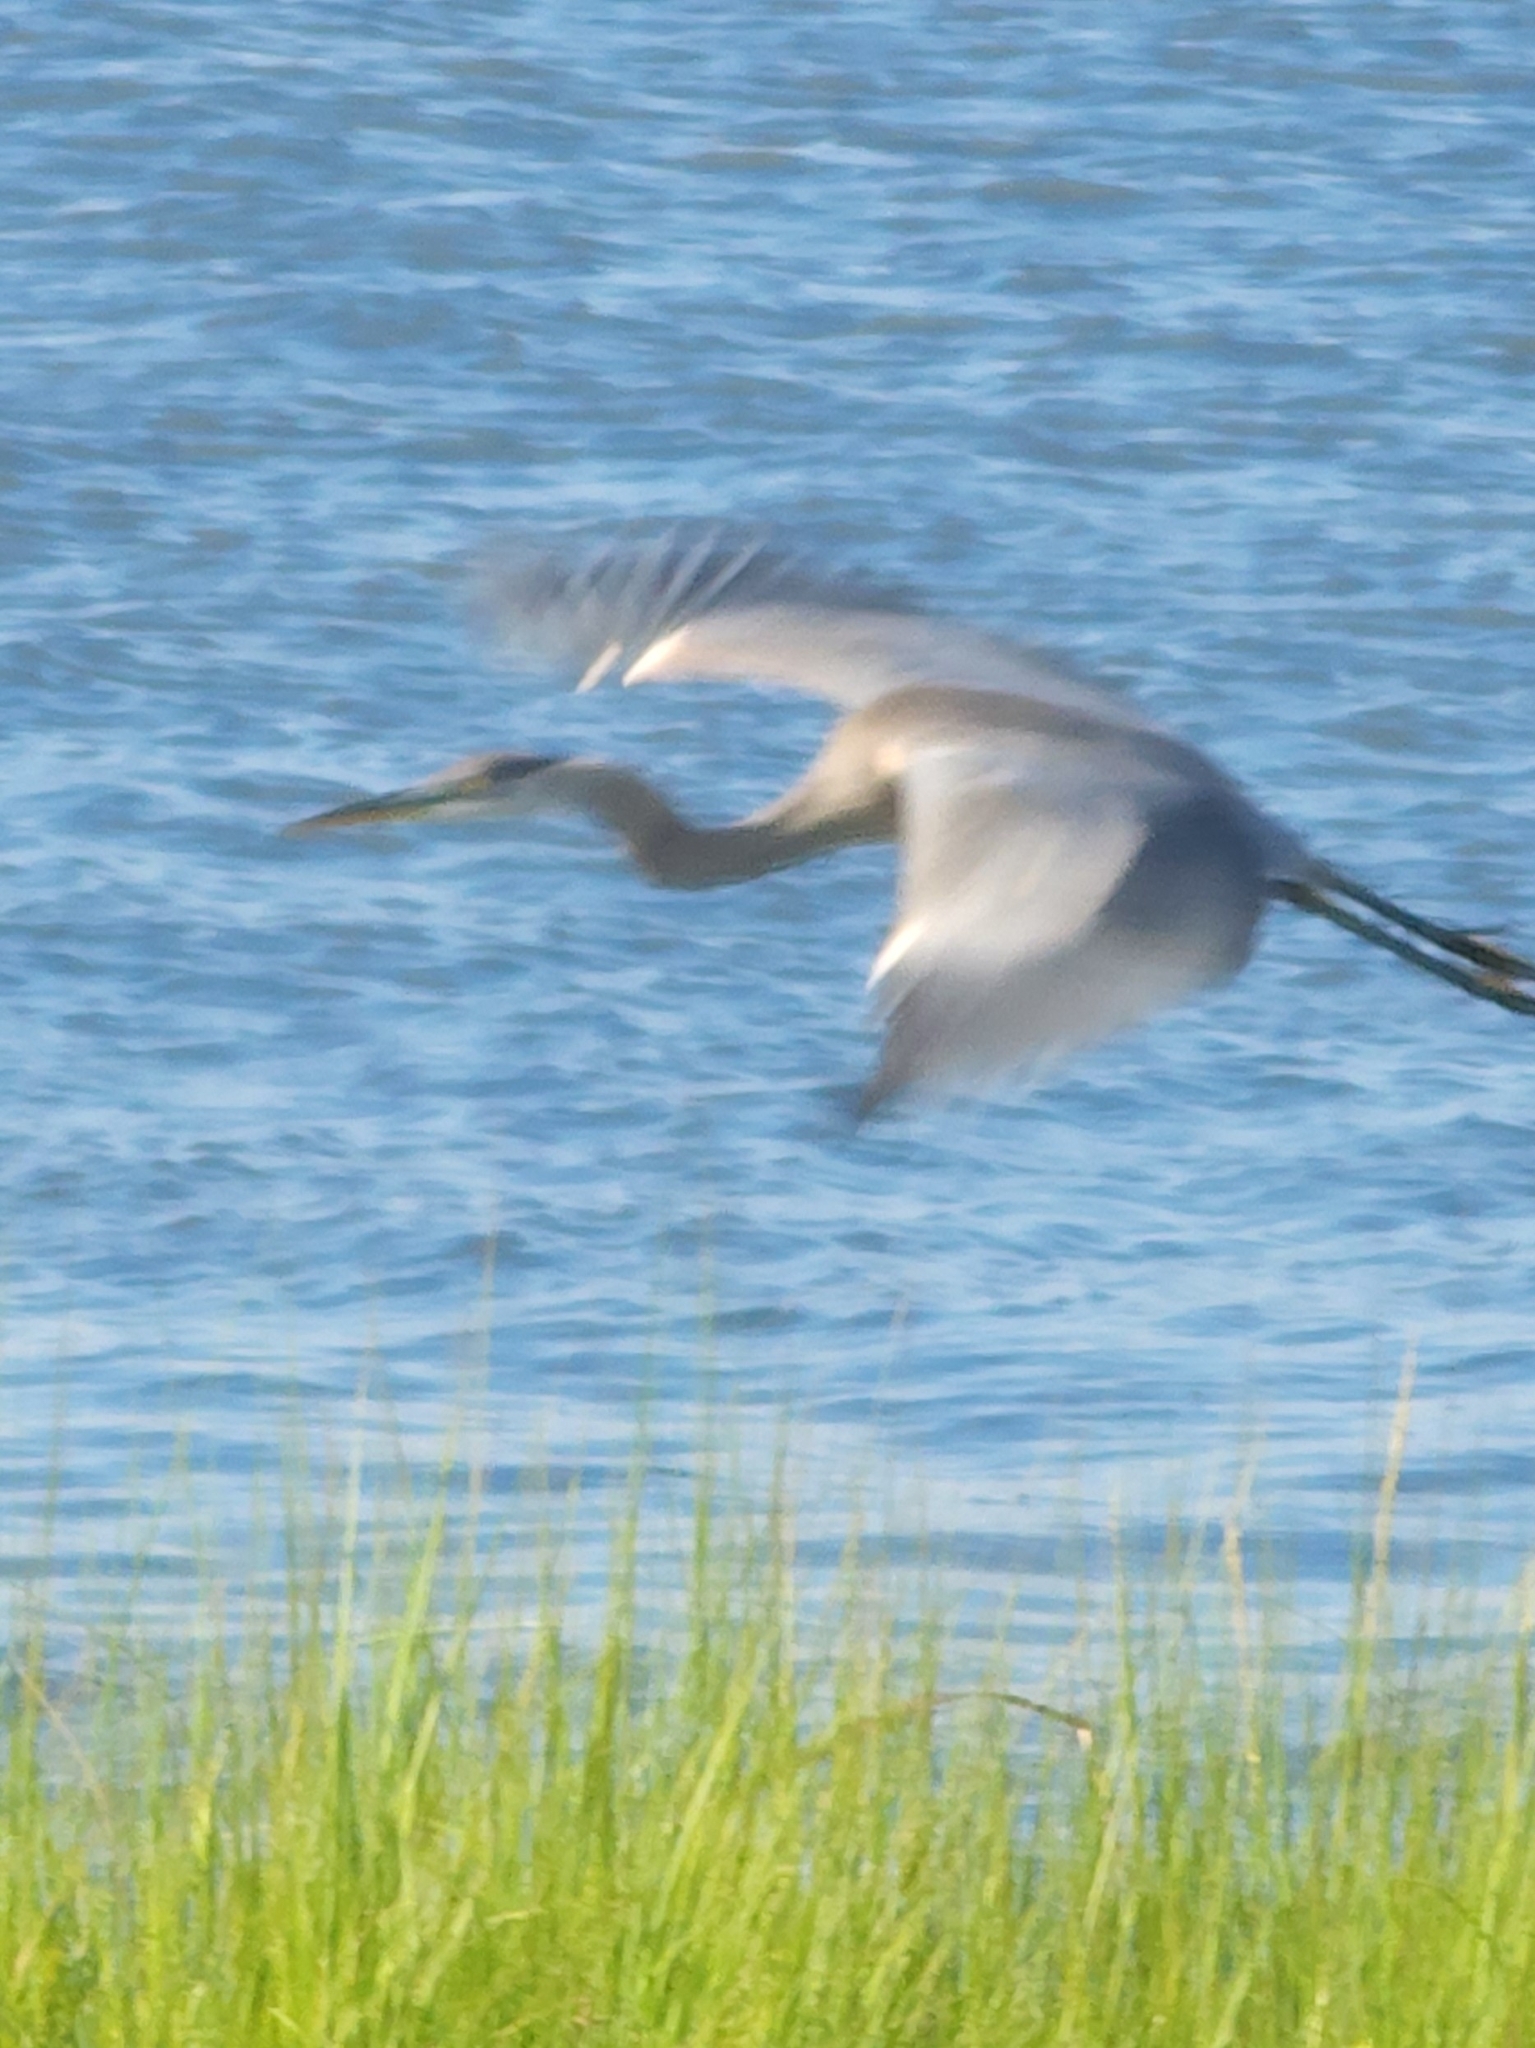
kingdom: Animalia
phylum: Chordata
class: Aves
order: Pelecaniformes
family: Ardeidae
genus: Ardea
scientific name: Ardea herodias
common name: Great blue heron
